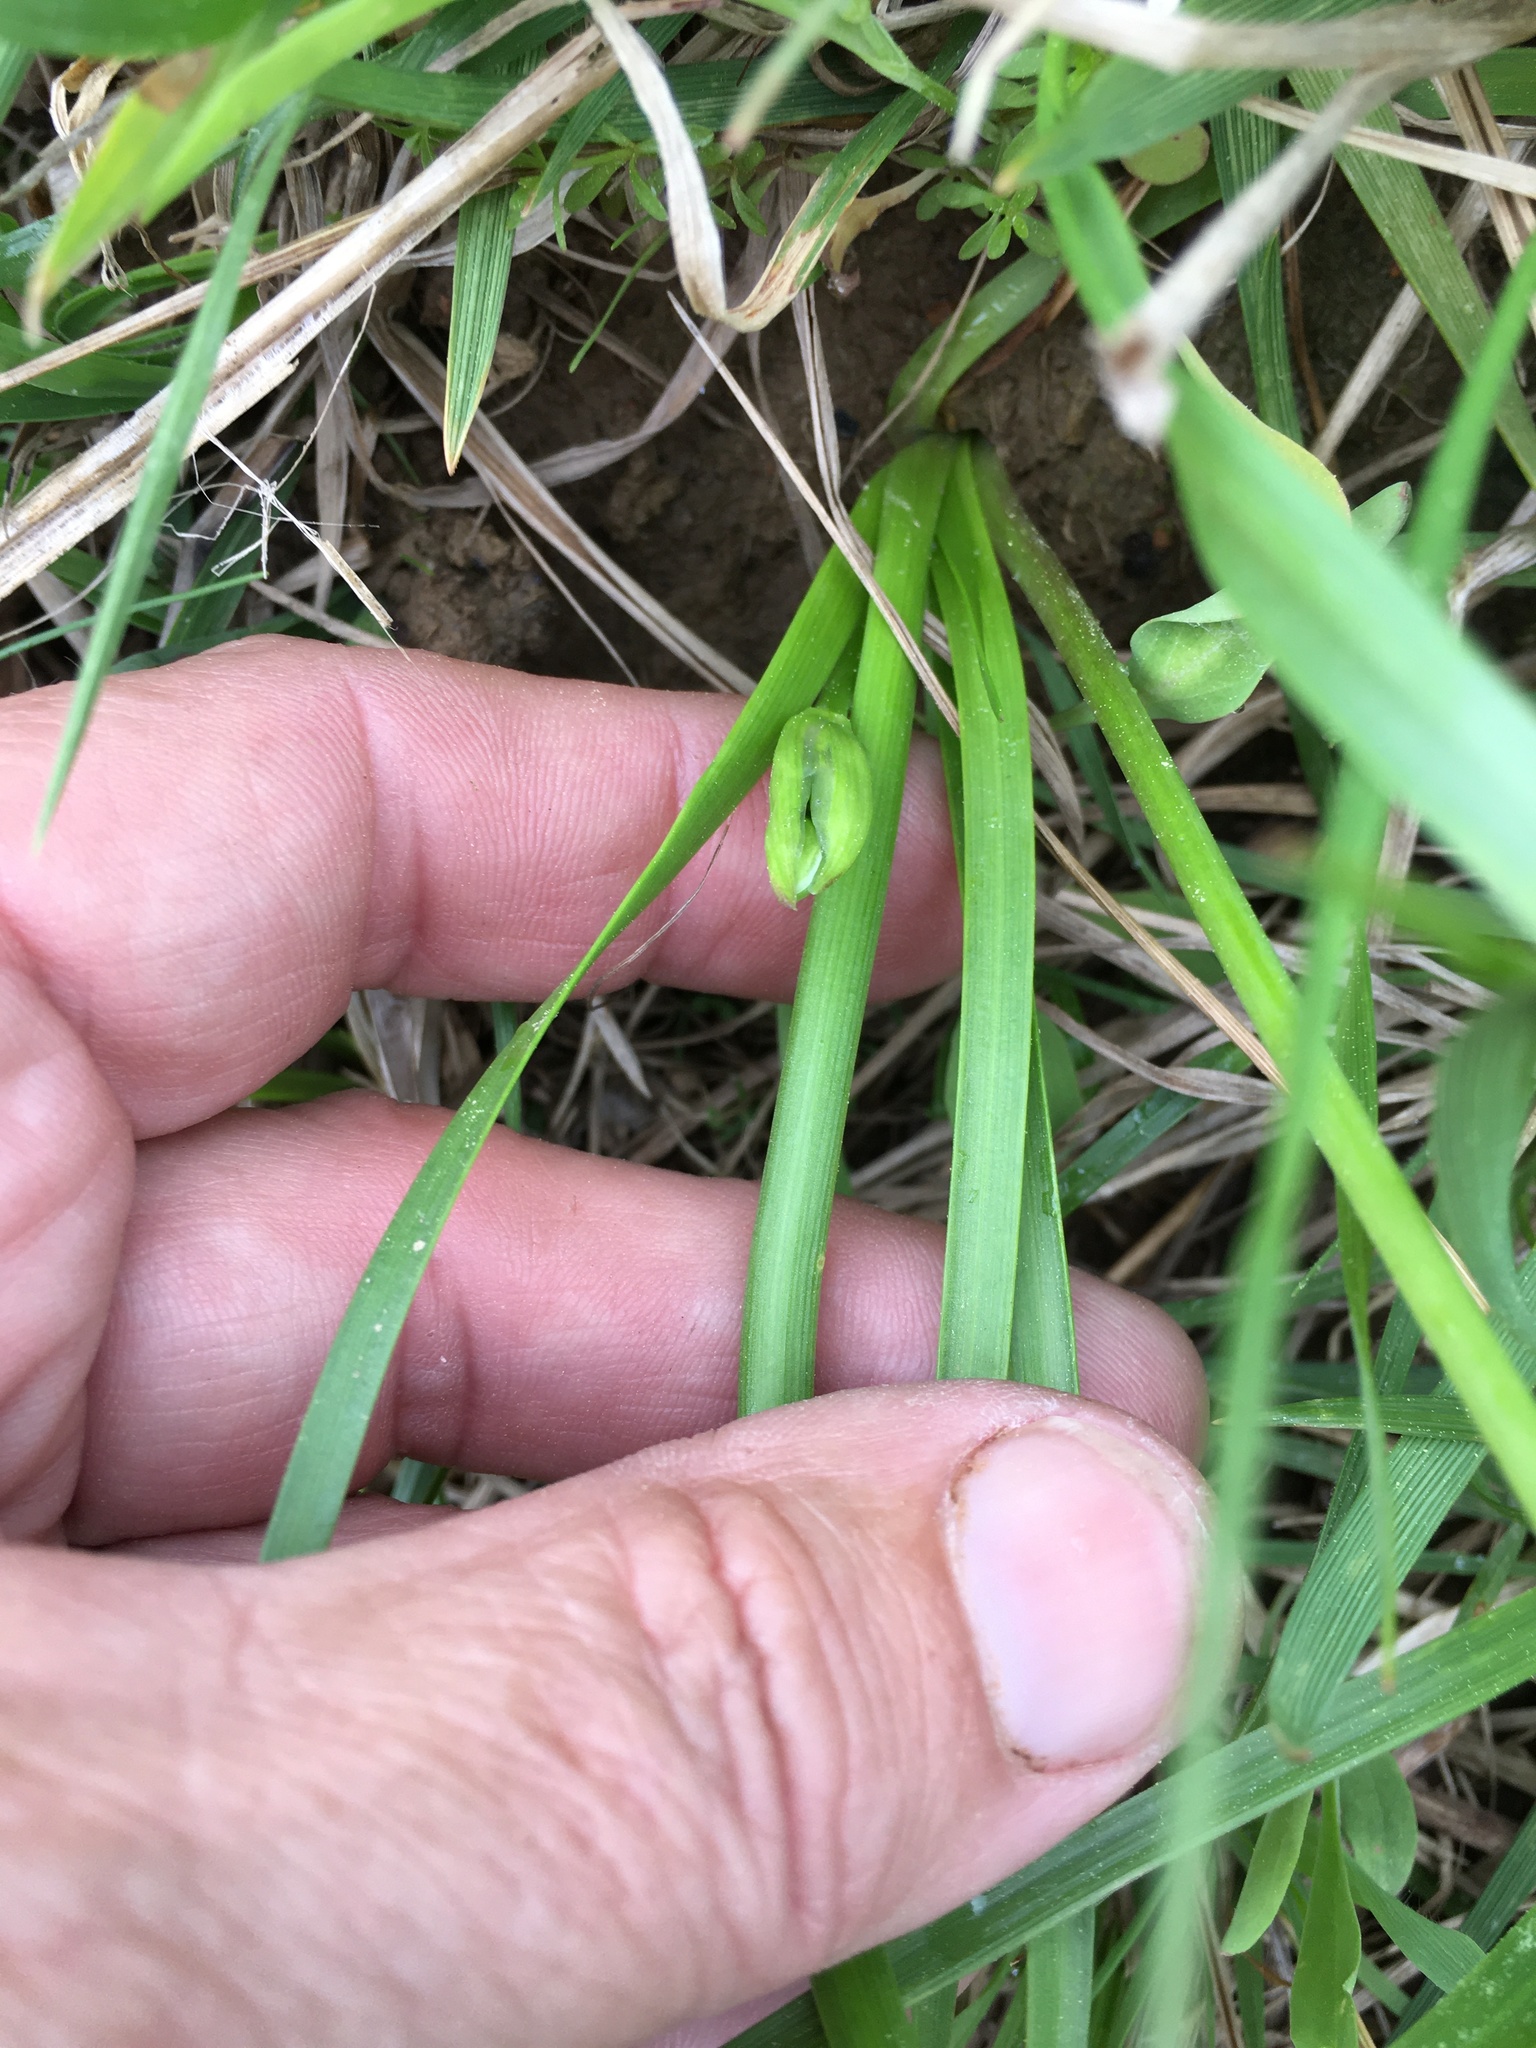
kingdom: Plantae
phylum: Tracheophyta
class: Liliopsida
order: Asparagales
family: Amaryllidaceae
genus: Nothoscordum
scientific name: Nothoscordum bivalve
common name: Crow-poison
